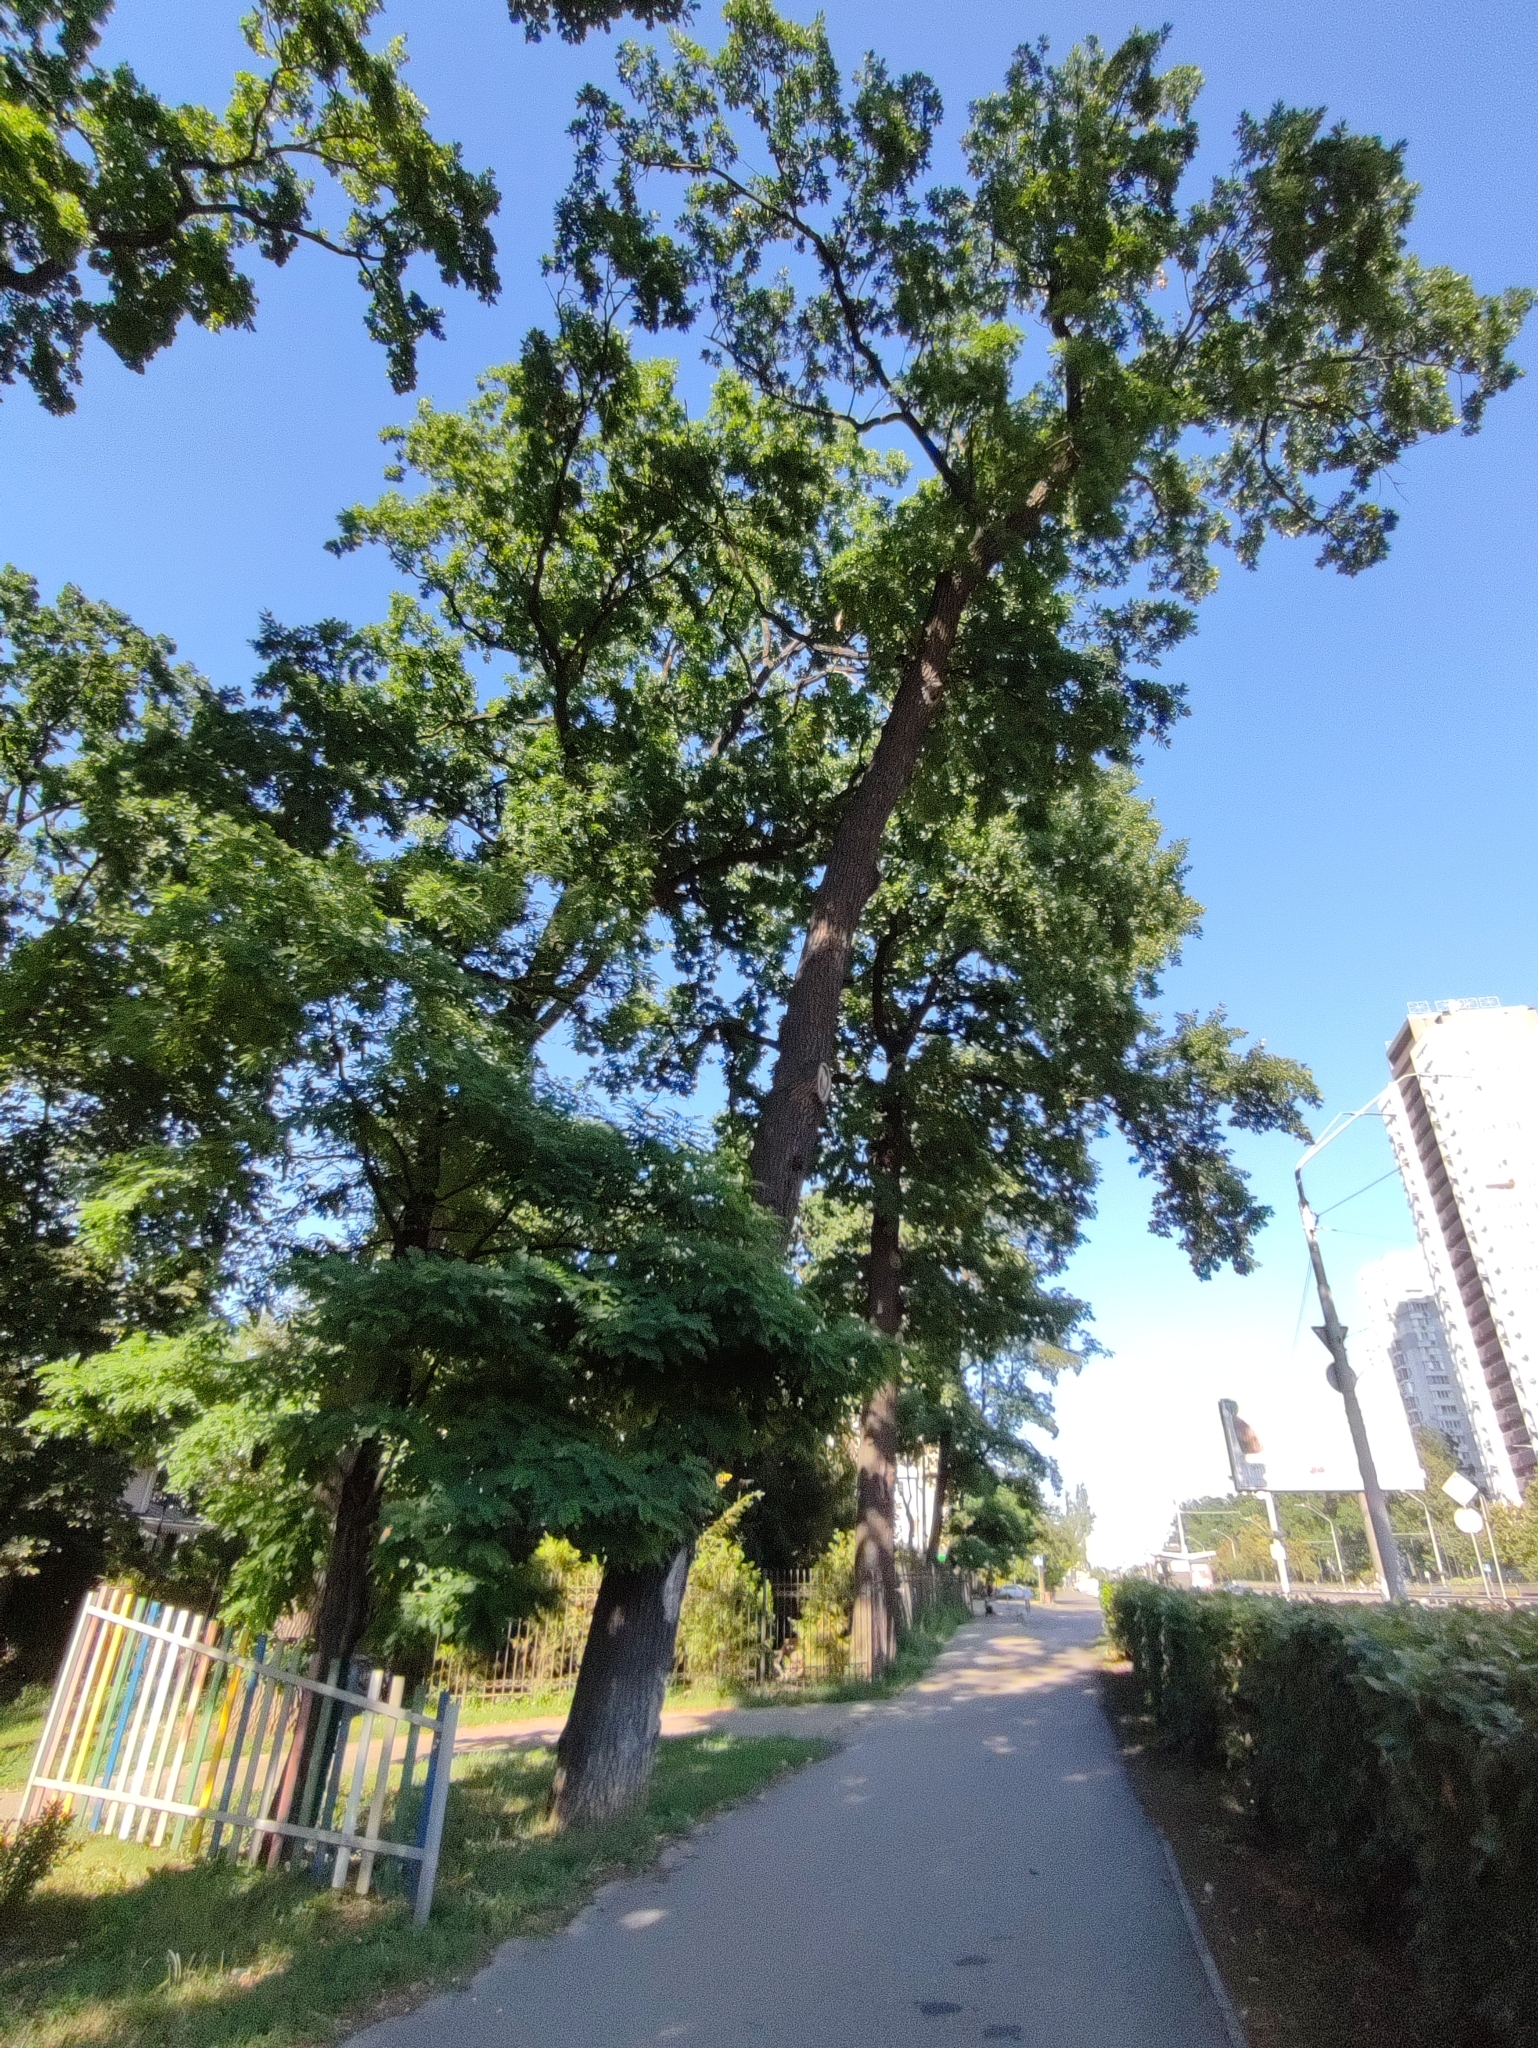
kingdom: Plantae
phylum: Tracheophyta
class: Magnoliopsida
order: Fagales
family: Fagaceae
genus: Quercus
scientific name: Quercus robur
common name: Pedunculate oak
